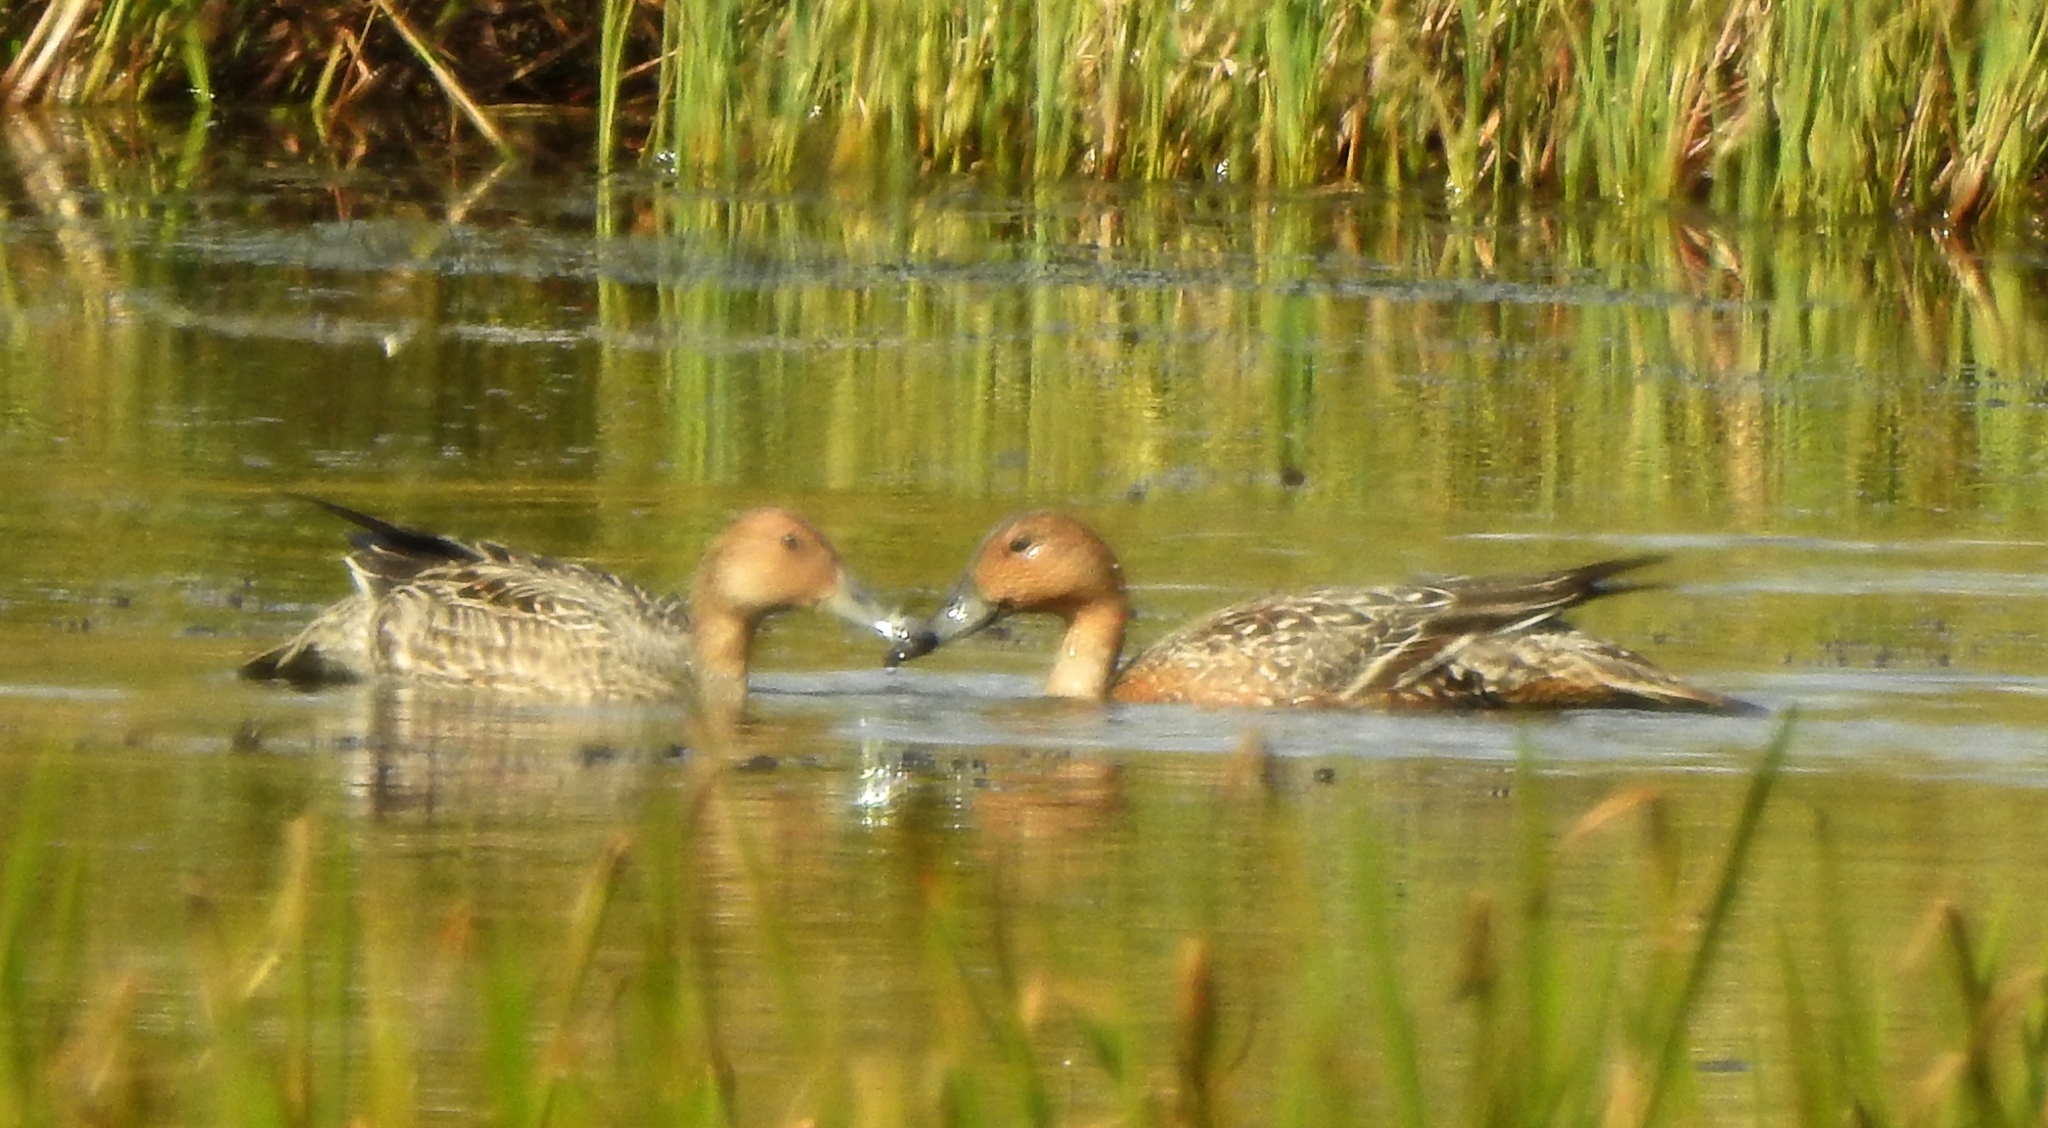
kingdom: Animalia
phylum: Chordata
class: Aves
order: Anseriformes
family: Anatidae
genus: Anas
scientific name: Anas acuta
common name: Northern pintail
